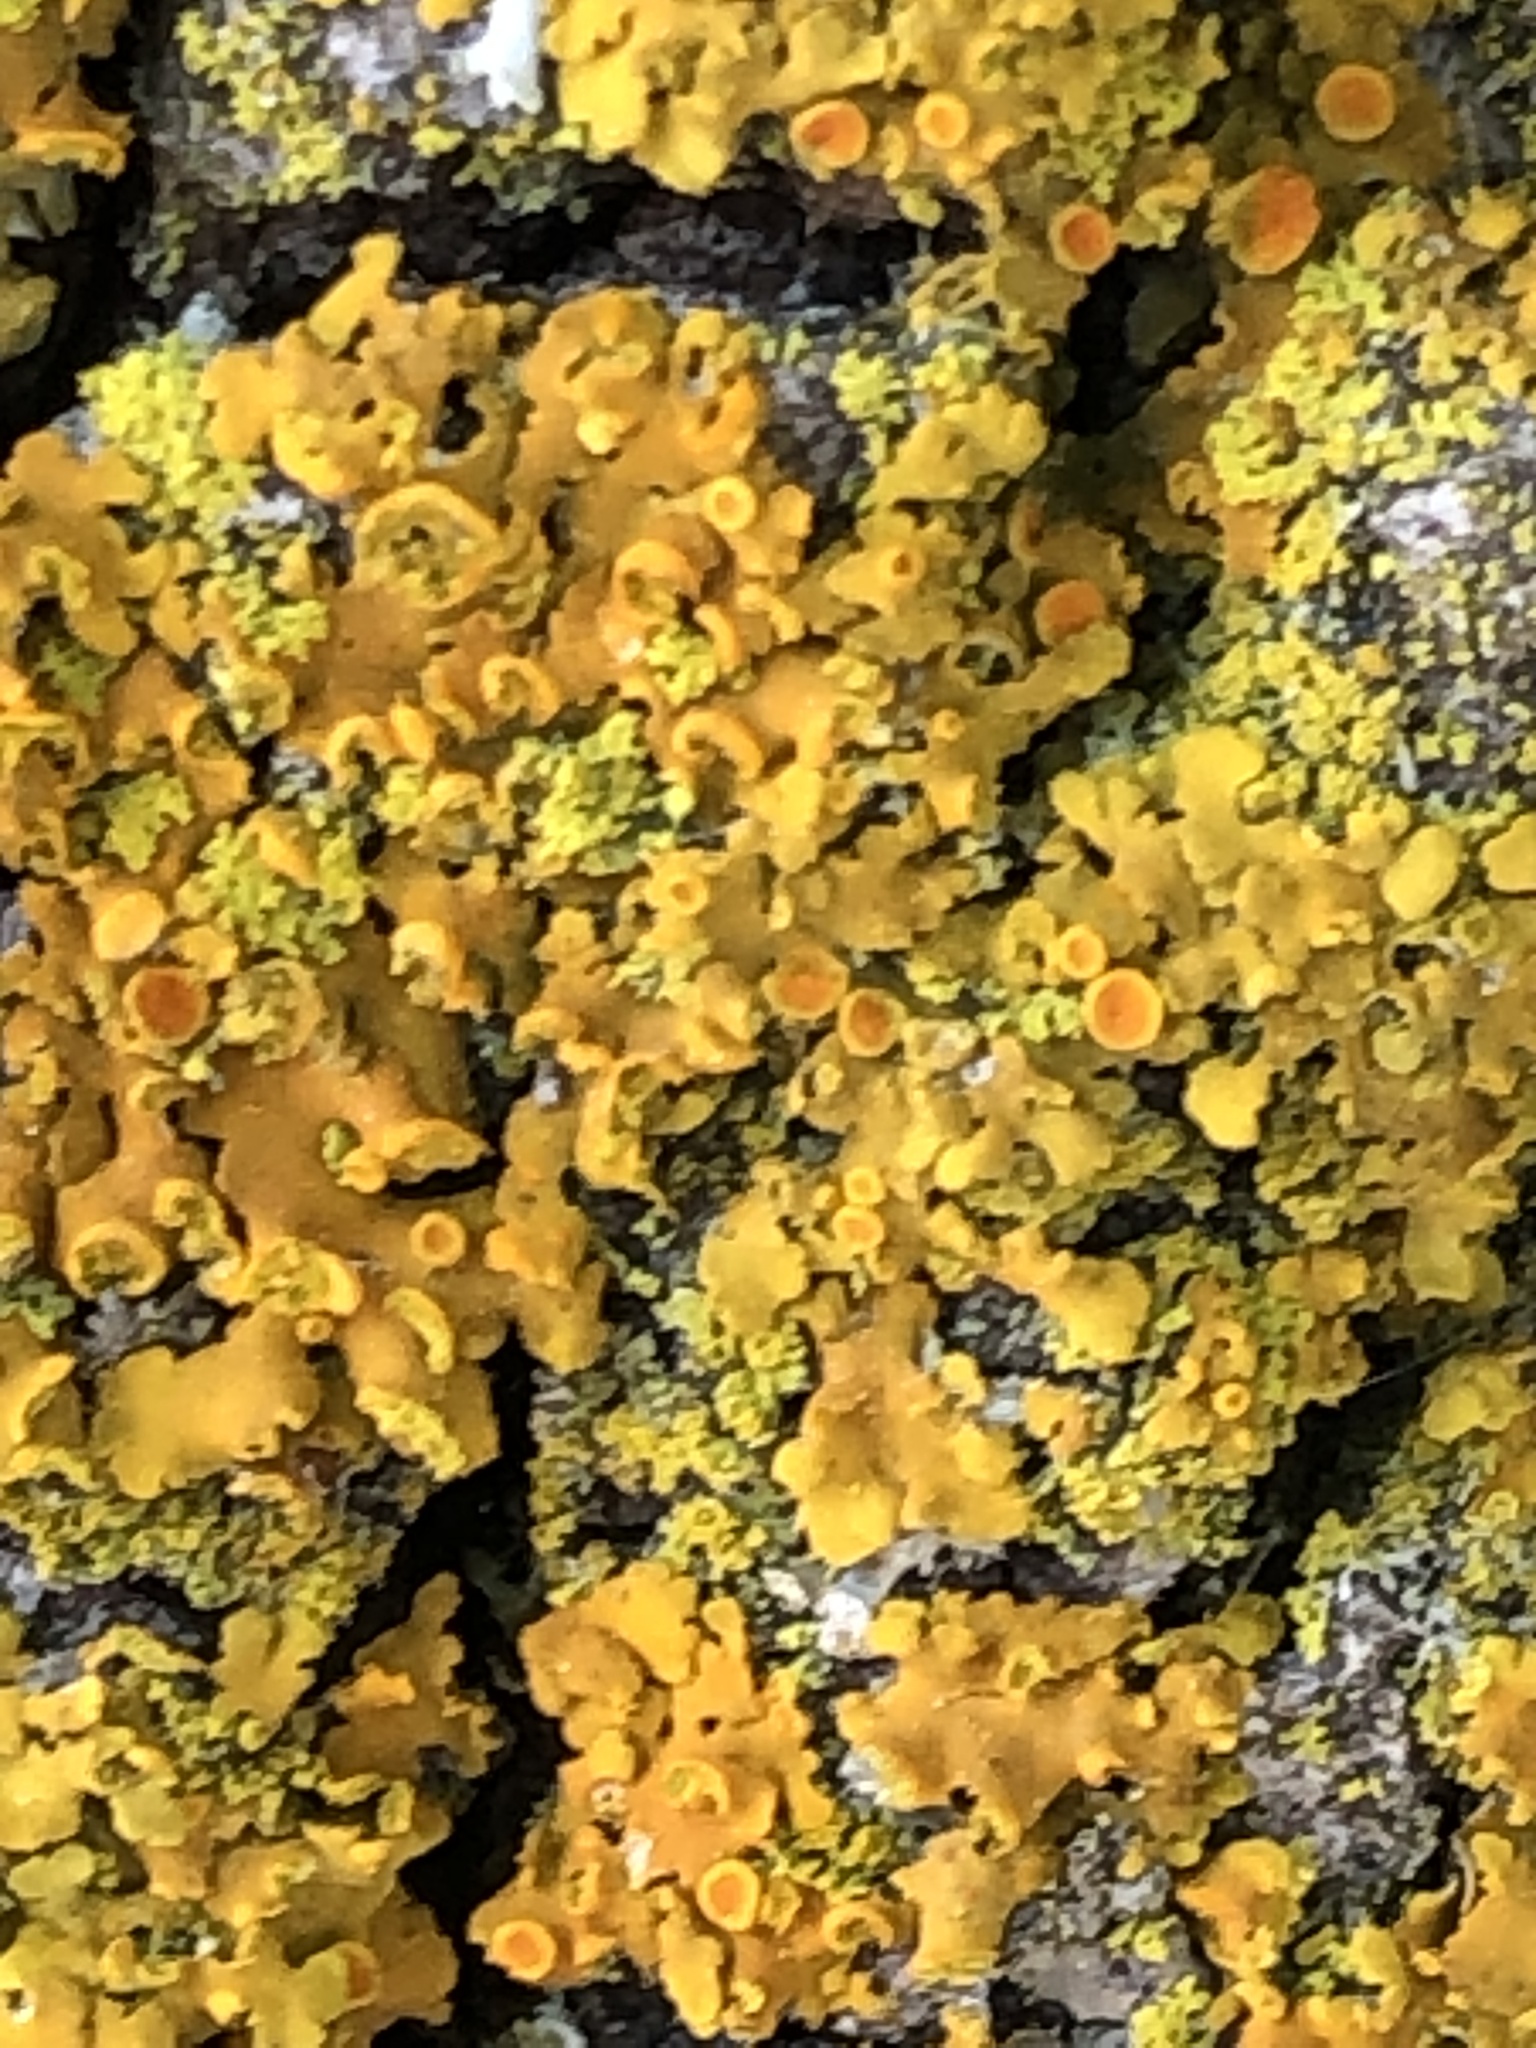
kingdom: Fungi
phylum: Ascomycota
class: Lecanoromycetes
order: Teloschistales
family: Teloschistaceae
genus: Oxneria
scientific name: Oxneria fallax
